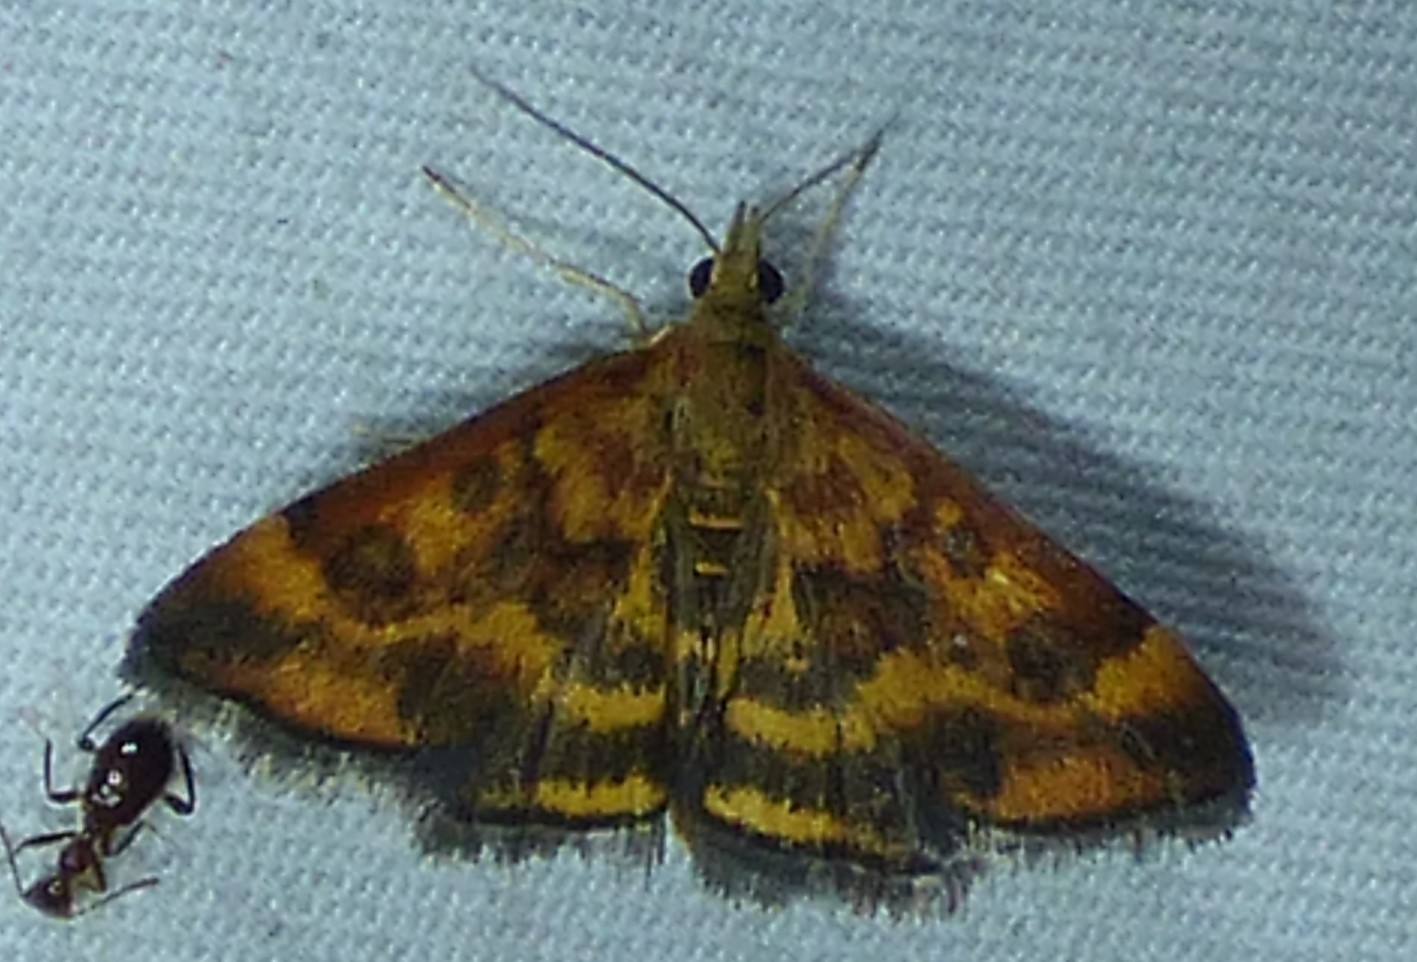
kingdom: Animalia
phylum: Arthropoda
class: Insecta
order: Lepidoptera
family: Crambidae
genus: Pyrausta
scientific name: Pyrausta subsequalis
